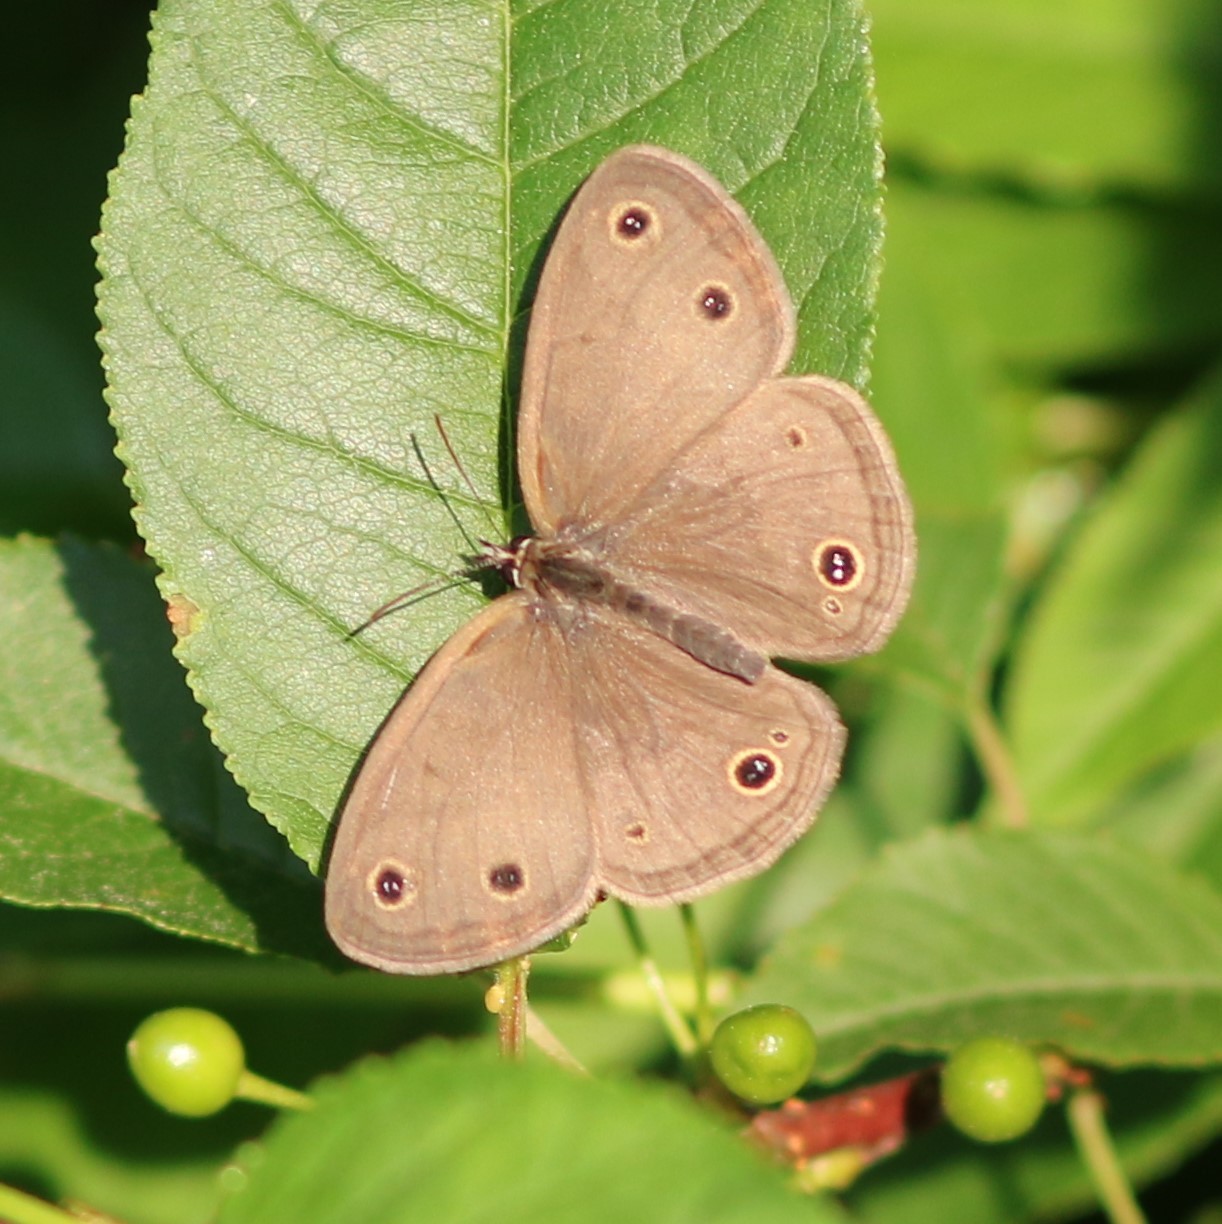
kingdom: Animalia
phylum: Arthropoda
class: Insecta
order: Lepidoptera
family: Nymphalidae
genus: Euptychia
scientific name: Euptychia cymela
